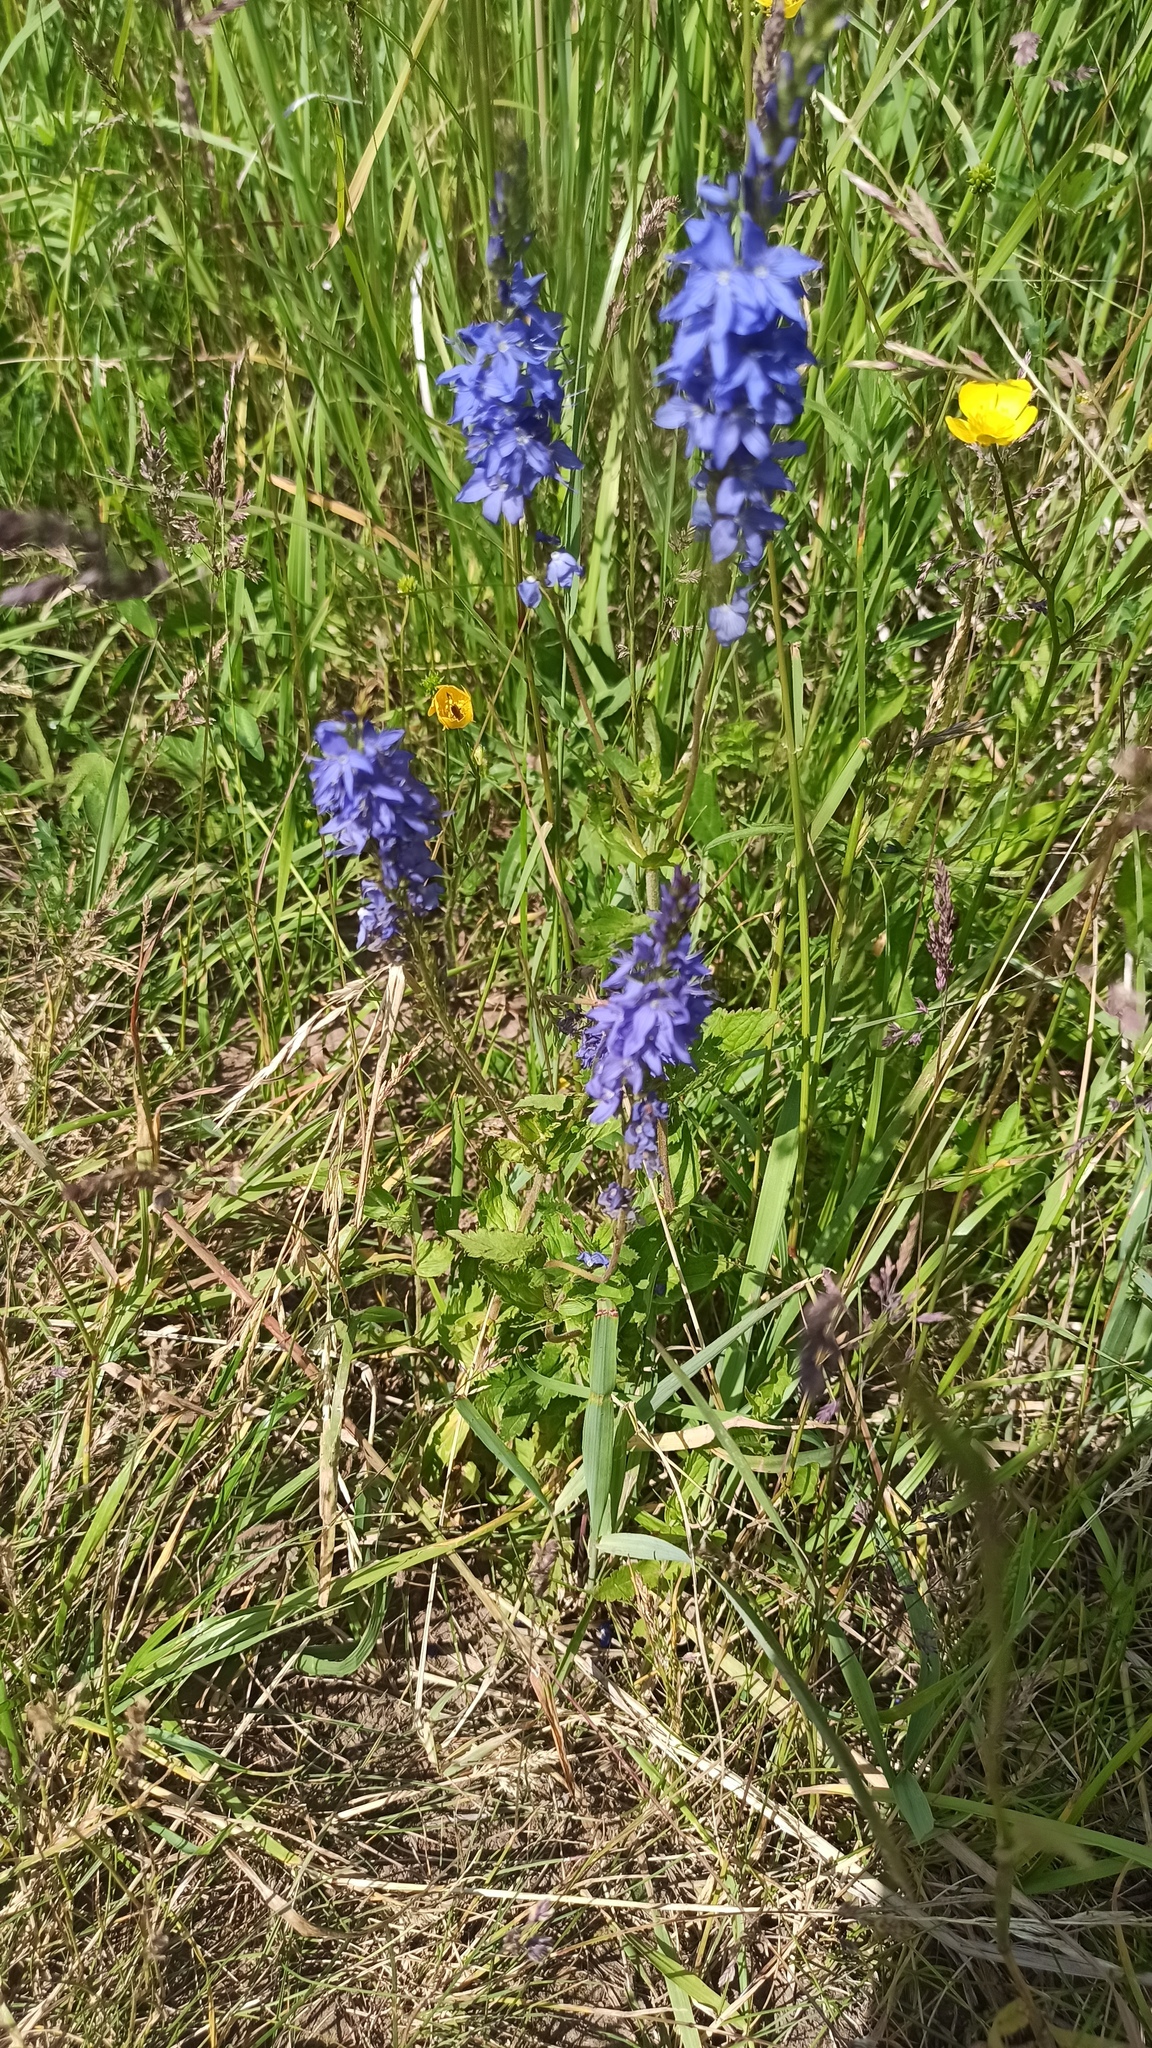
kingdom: Plantae
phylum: Tracheophyta
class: Magnoliopsida
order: Lamiales
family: Plantaginaceae
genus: Veronica
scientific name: Veronica teucrium
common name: Large speedwell
